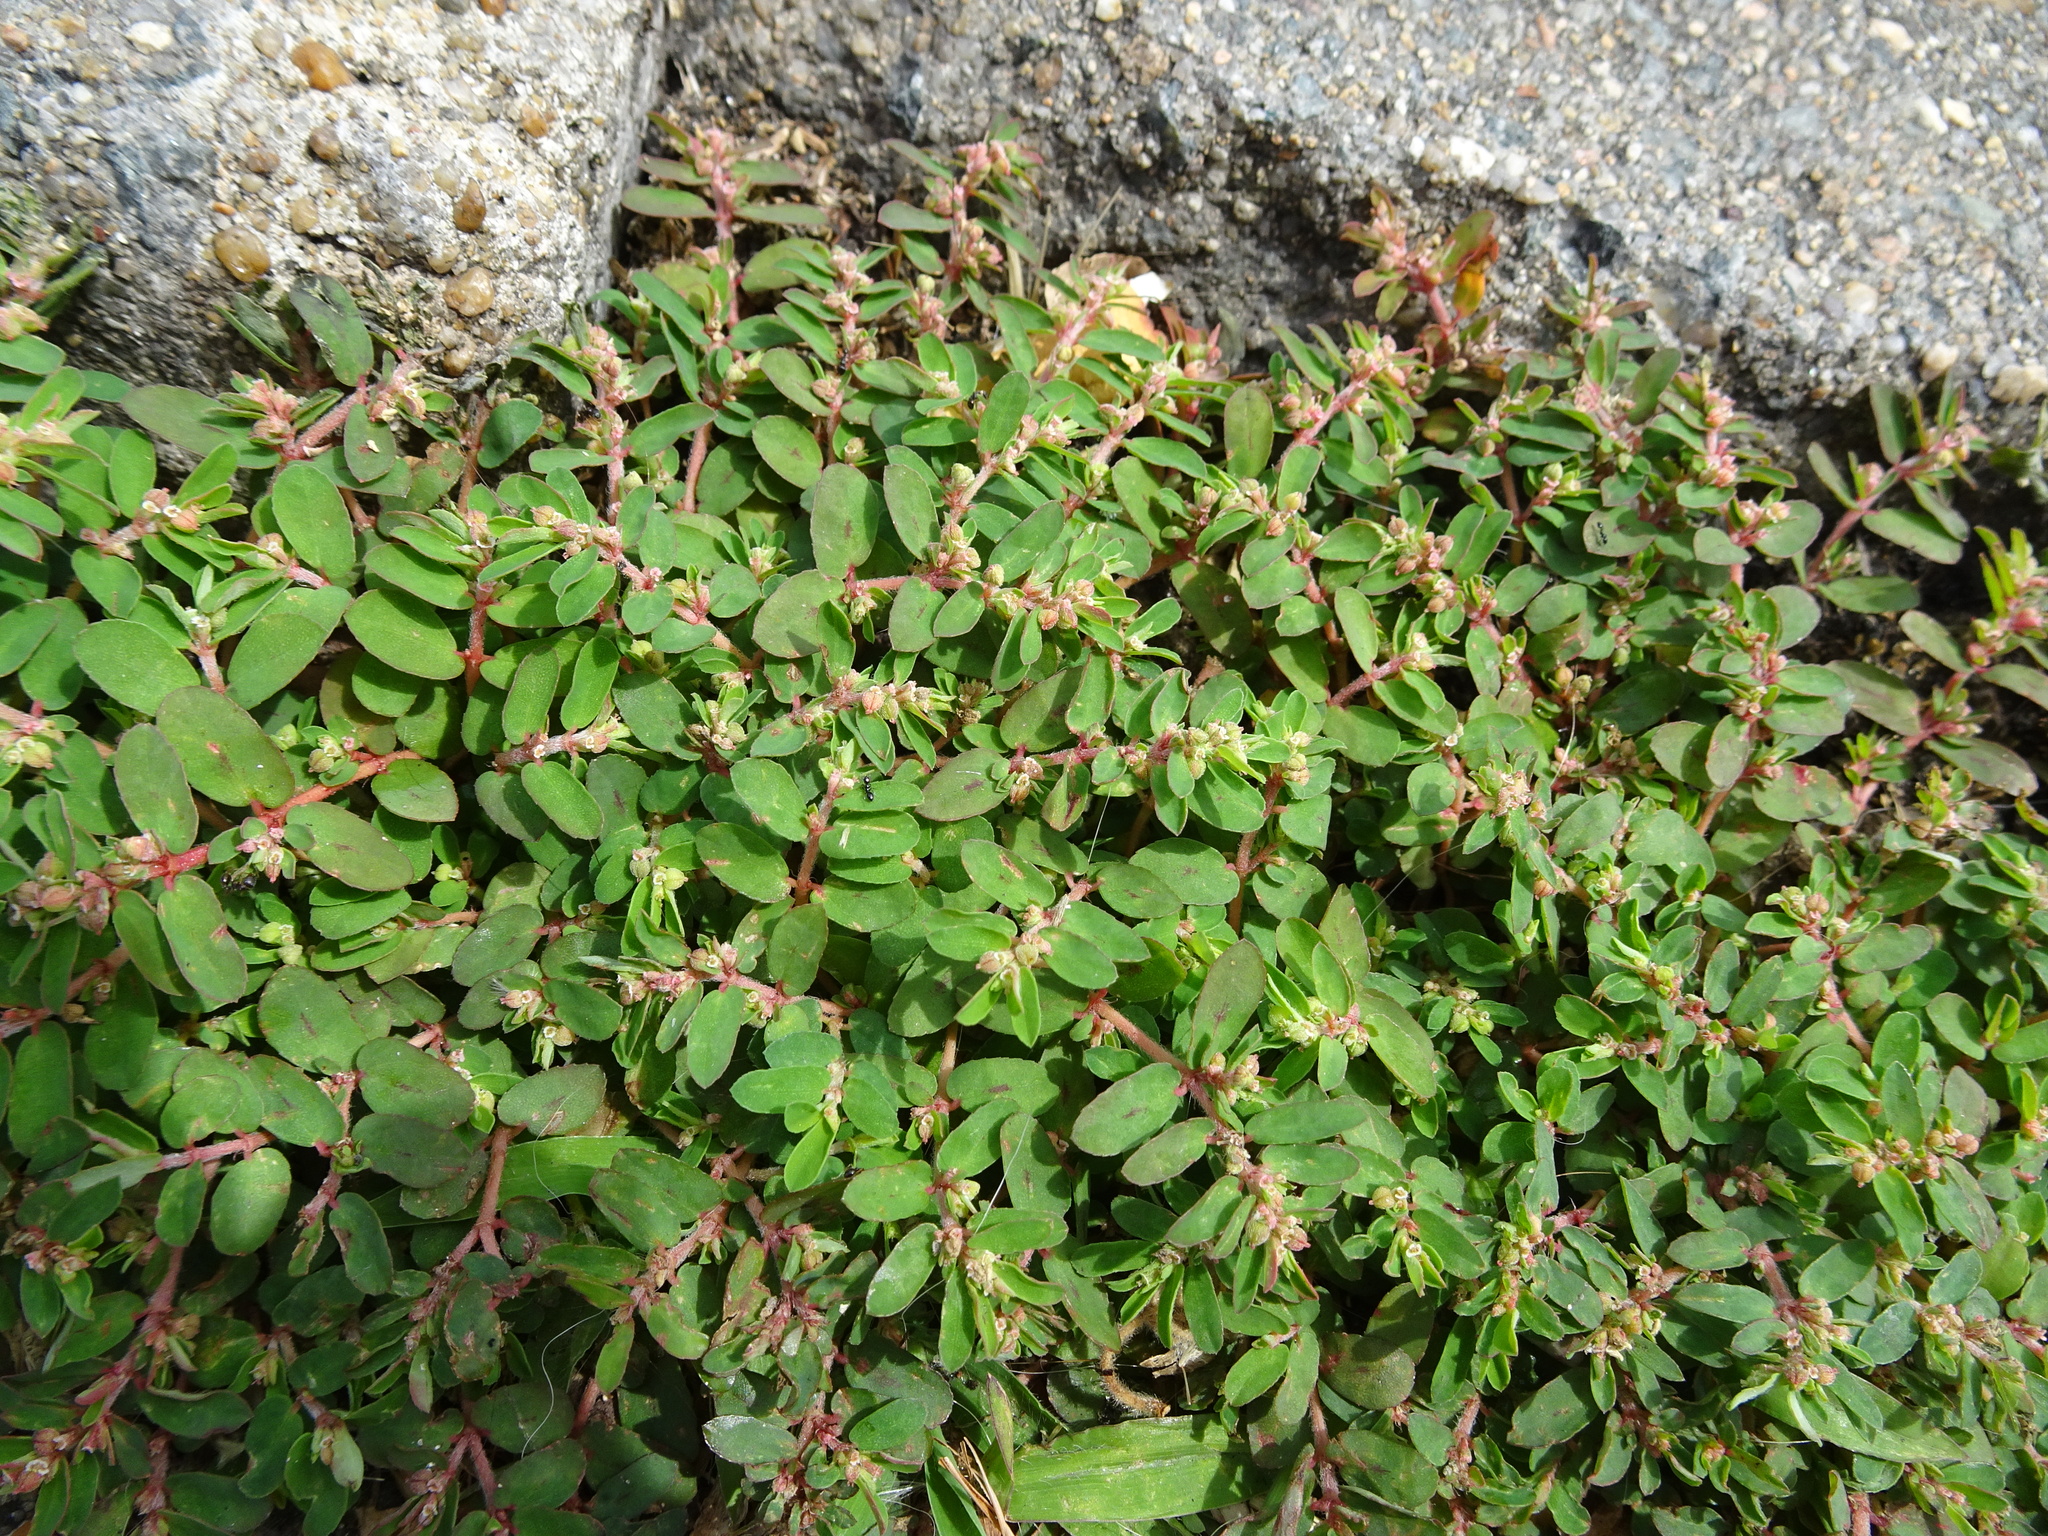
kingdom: Plantae
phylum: Tracheophyta
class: Magnoliopsida
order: Malpighiales
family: Euphorbiaceae
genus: Euphorbia
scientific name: Euphorbia maculata
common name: Spotted spurge
